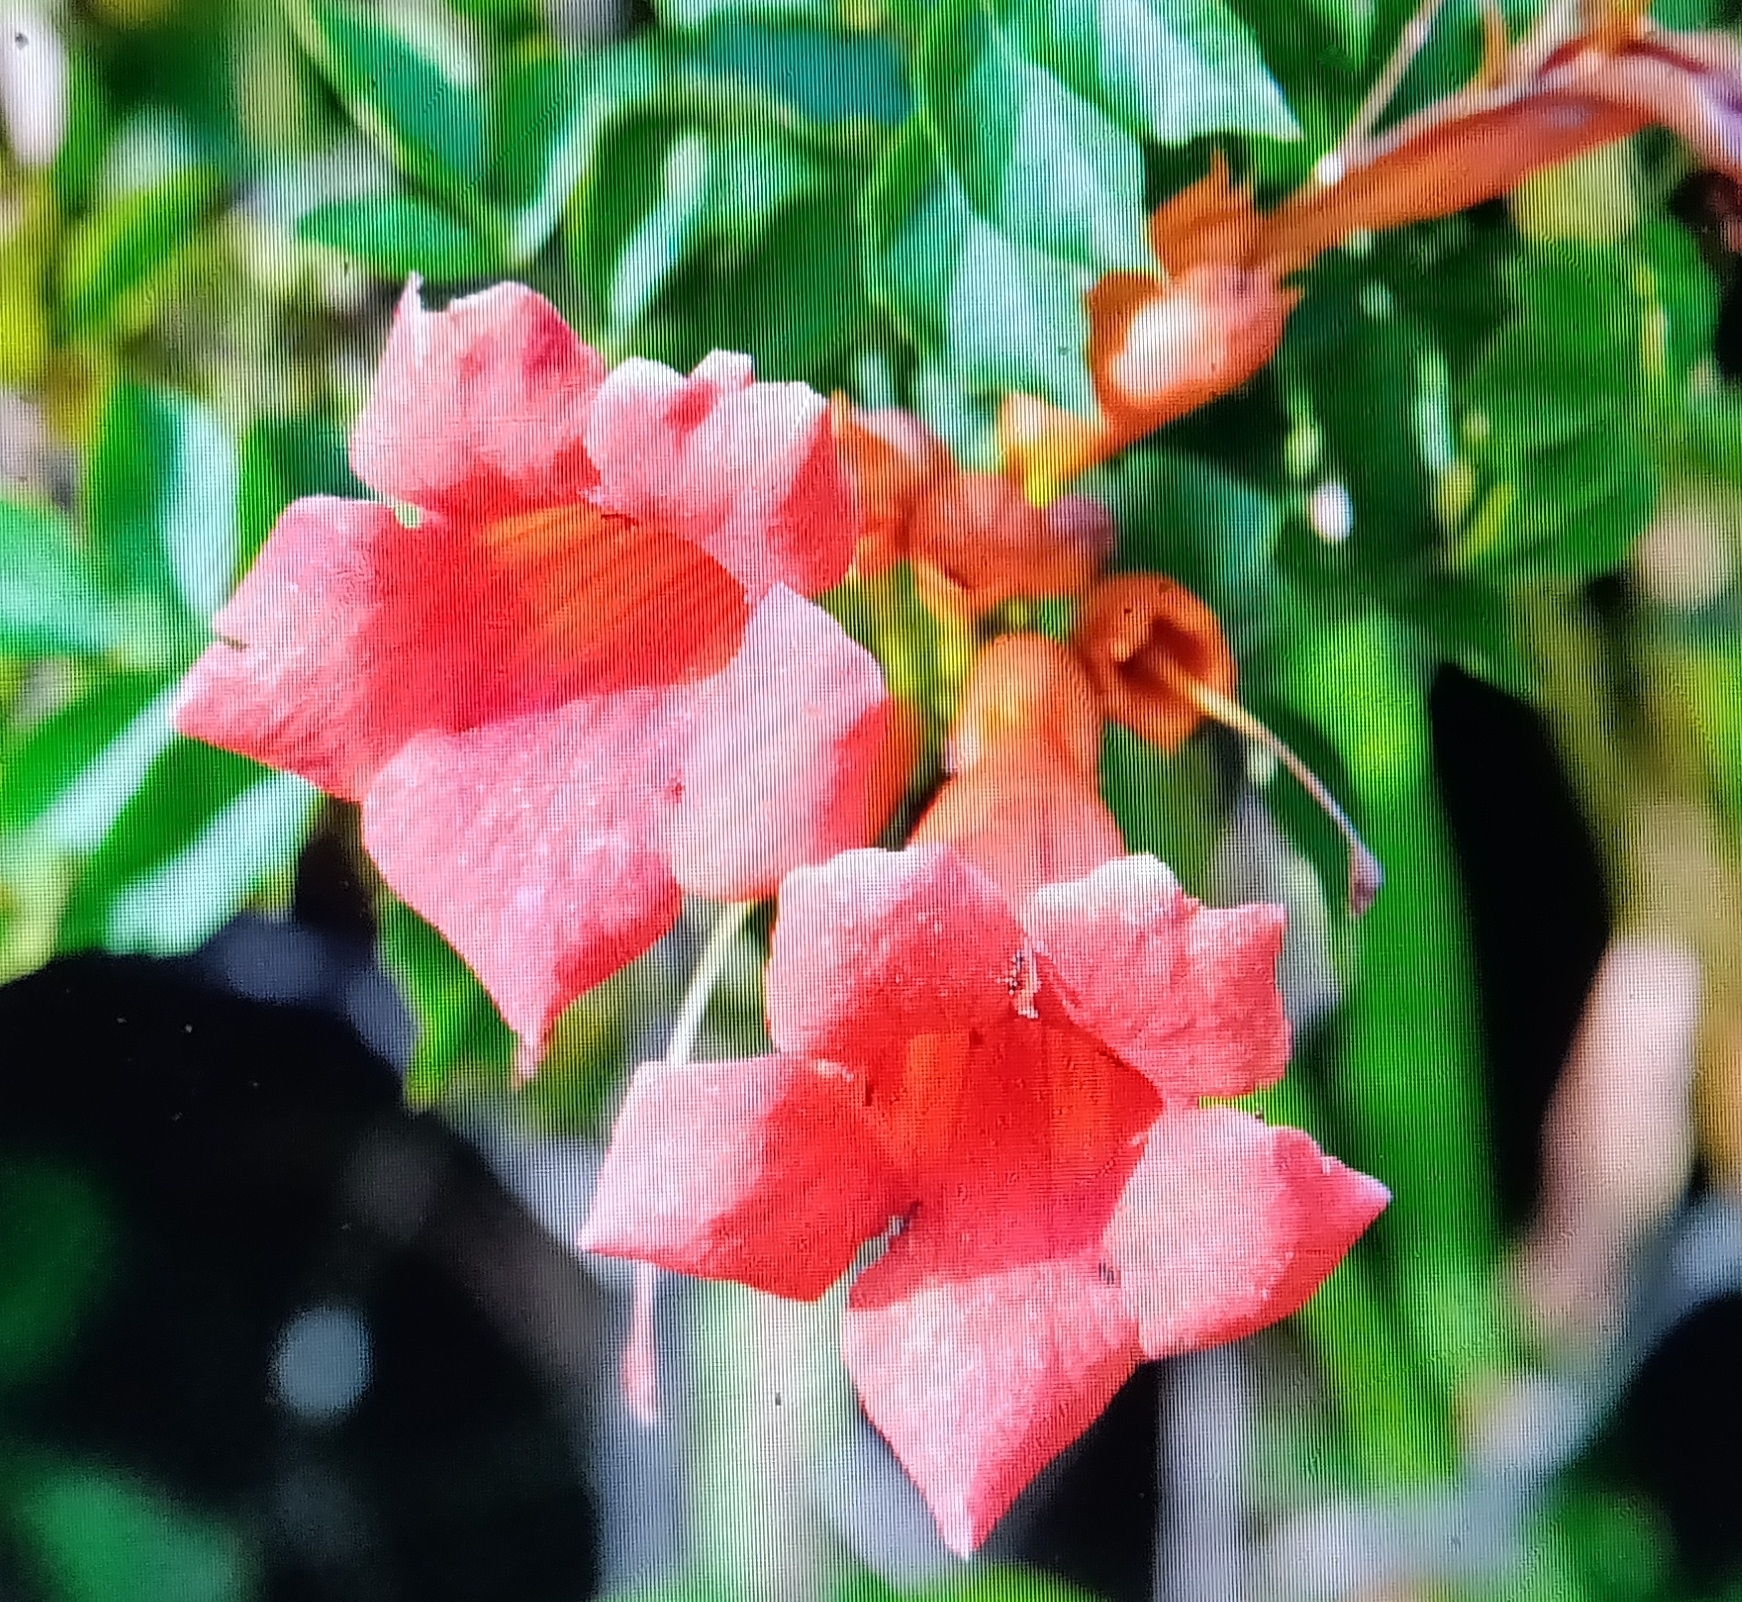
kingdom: Plantae
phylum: Tracheophyta
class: Magnoliopsida
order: Lamiales
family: Bignoniaceae
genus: Campsis
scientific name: Campsis radicans
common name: Trumpet-creeper
